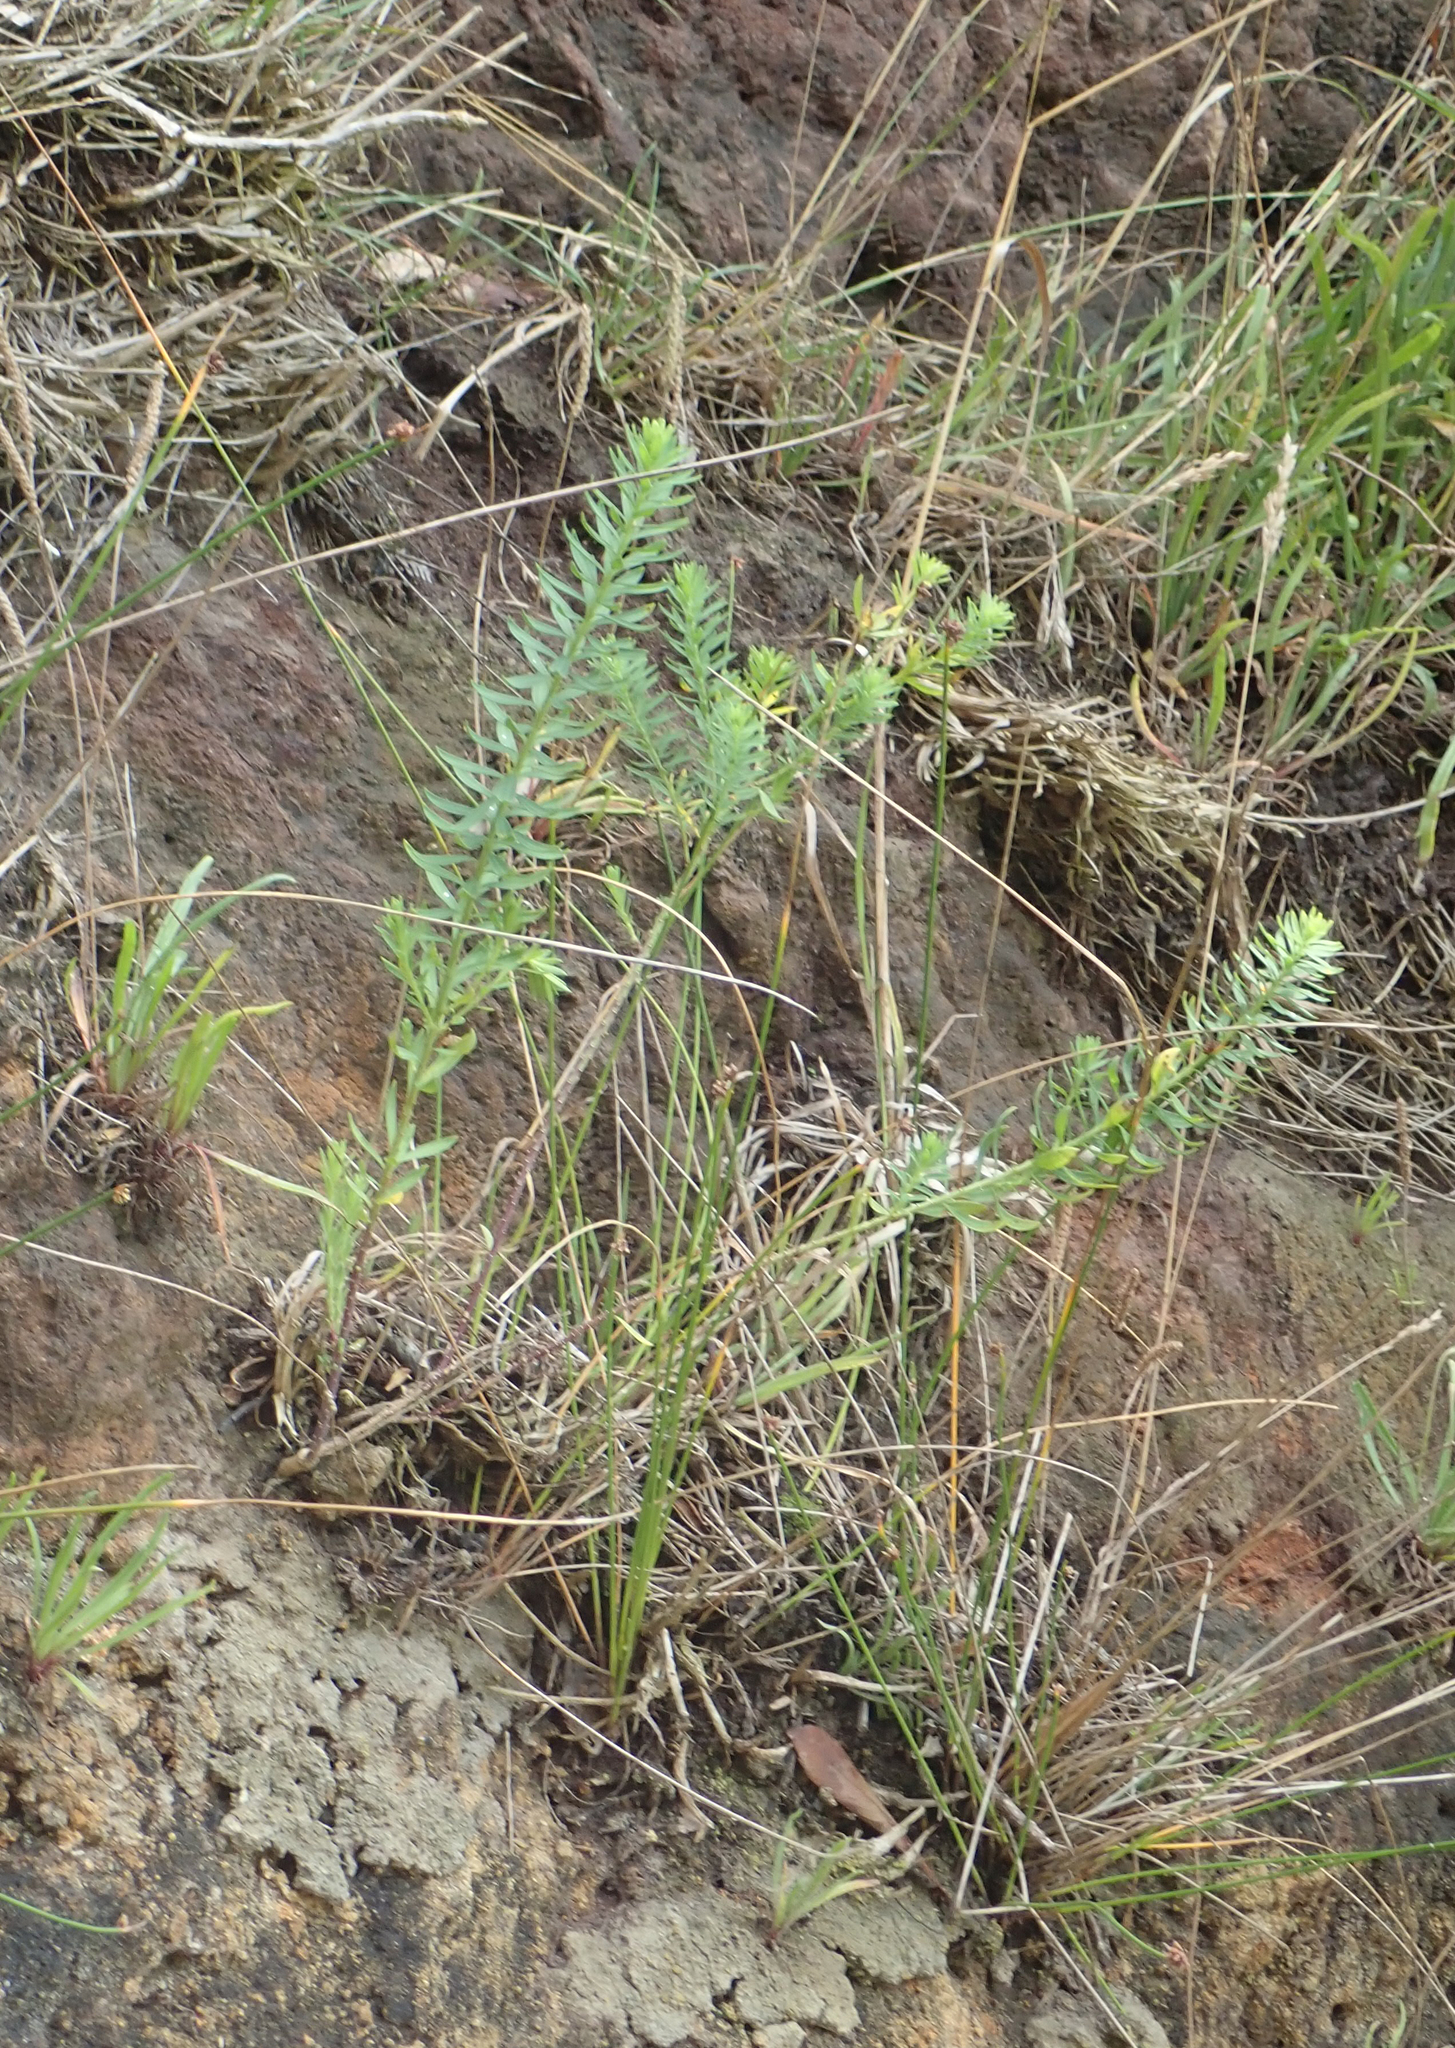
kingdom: Plantae
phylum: Tracheophyta
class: Magnoliopsida
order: Malpighiales
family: Linaceae
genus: Linum
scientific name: Linum monogynum
